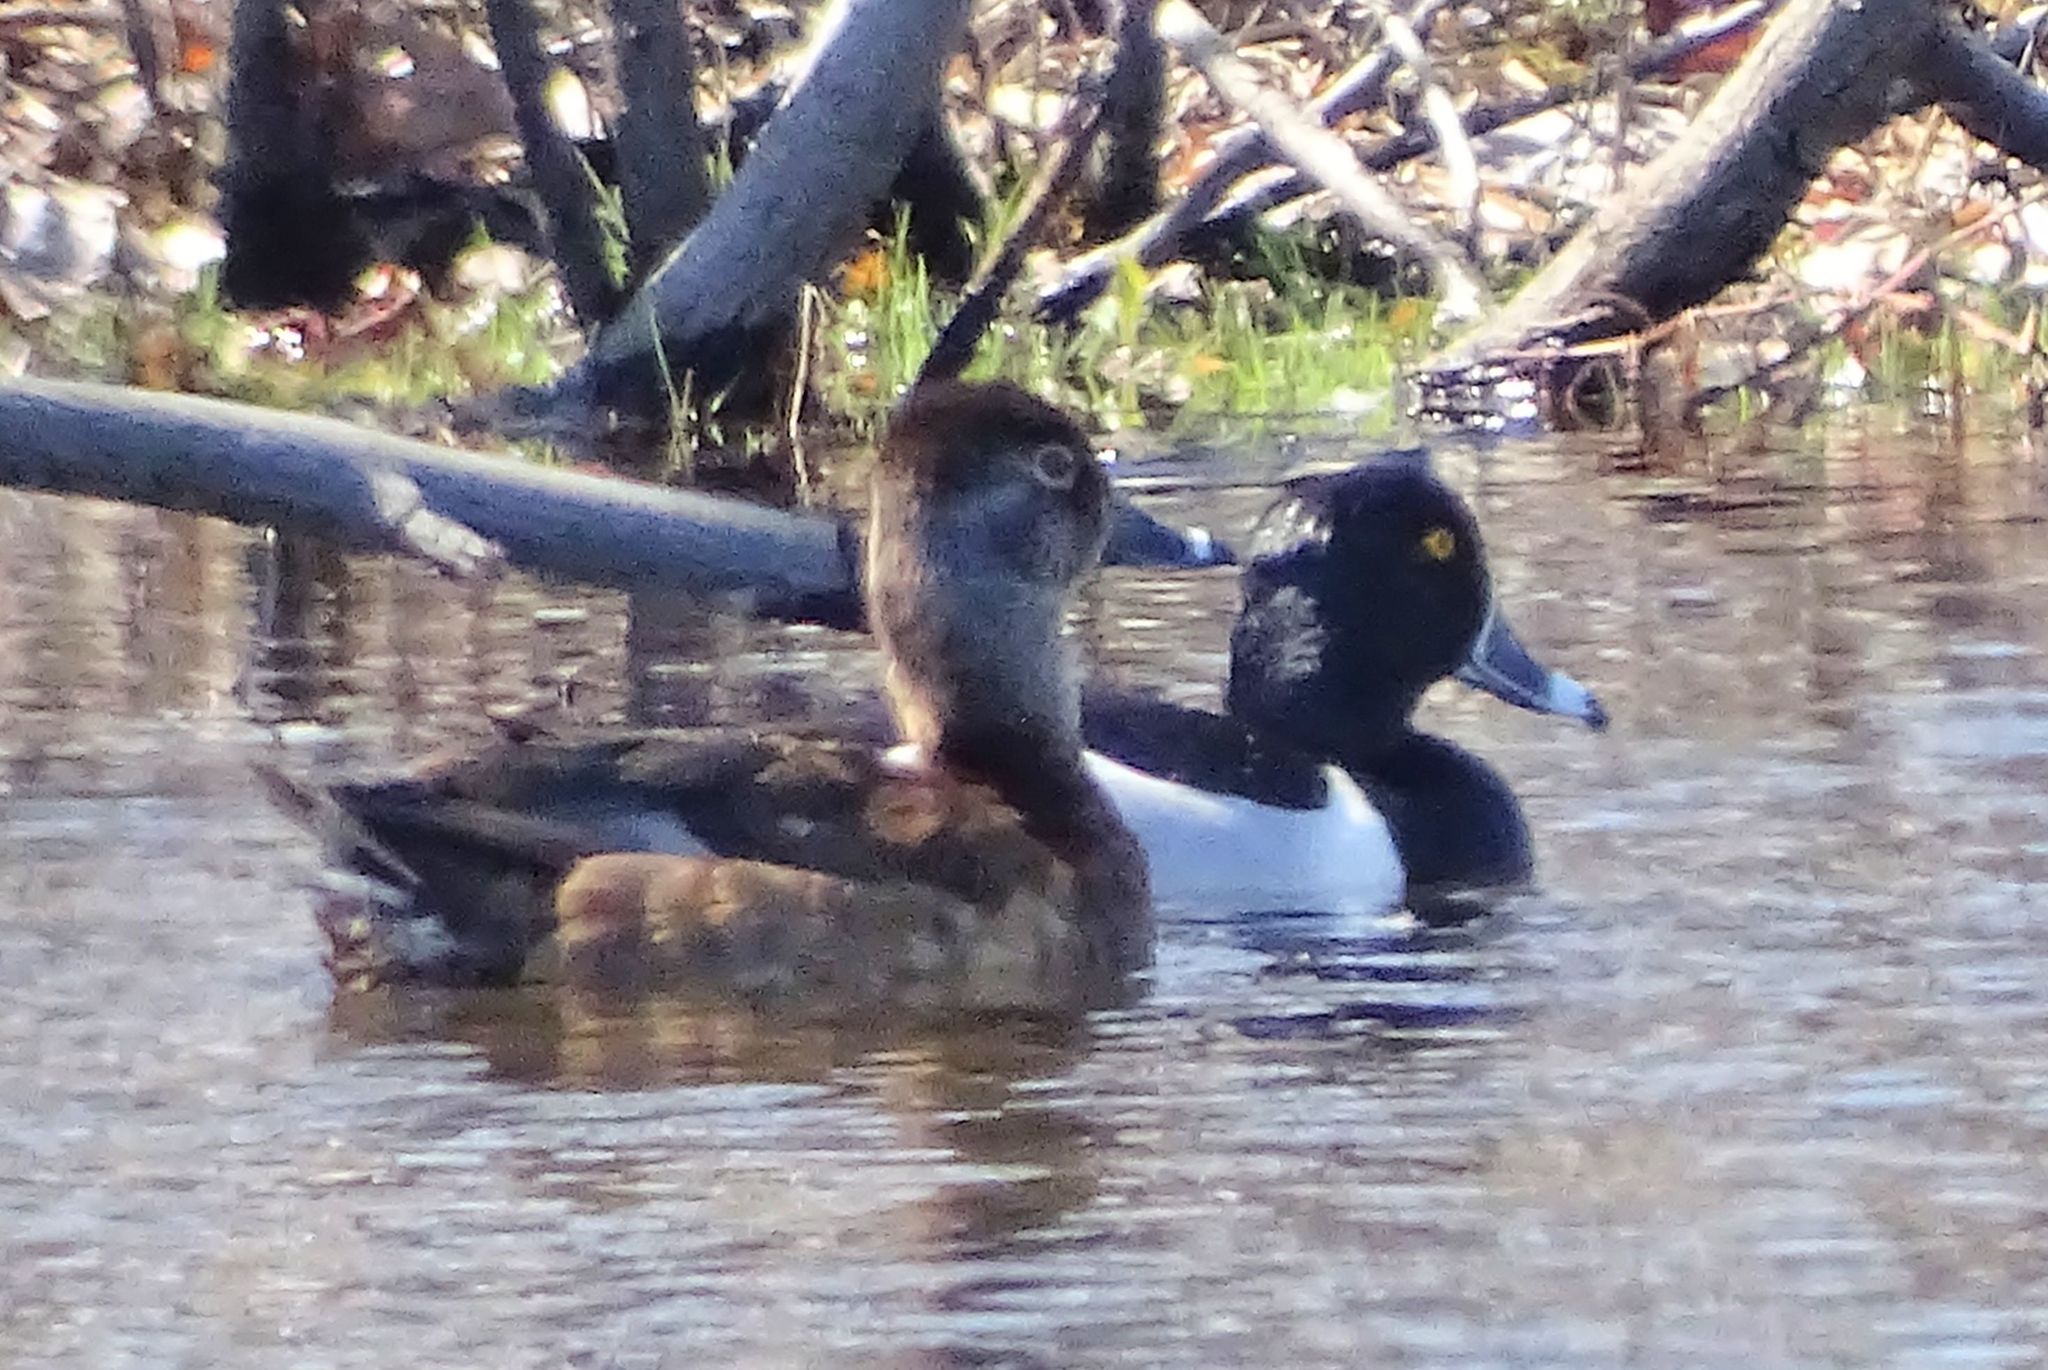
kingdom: Animalia
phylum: Chordata
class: Aves
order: Anseriformes
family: Anatidae
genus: Aythya
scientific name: Aythya collaris
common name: Ring-necked duck
